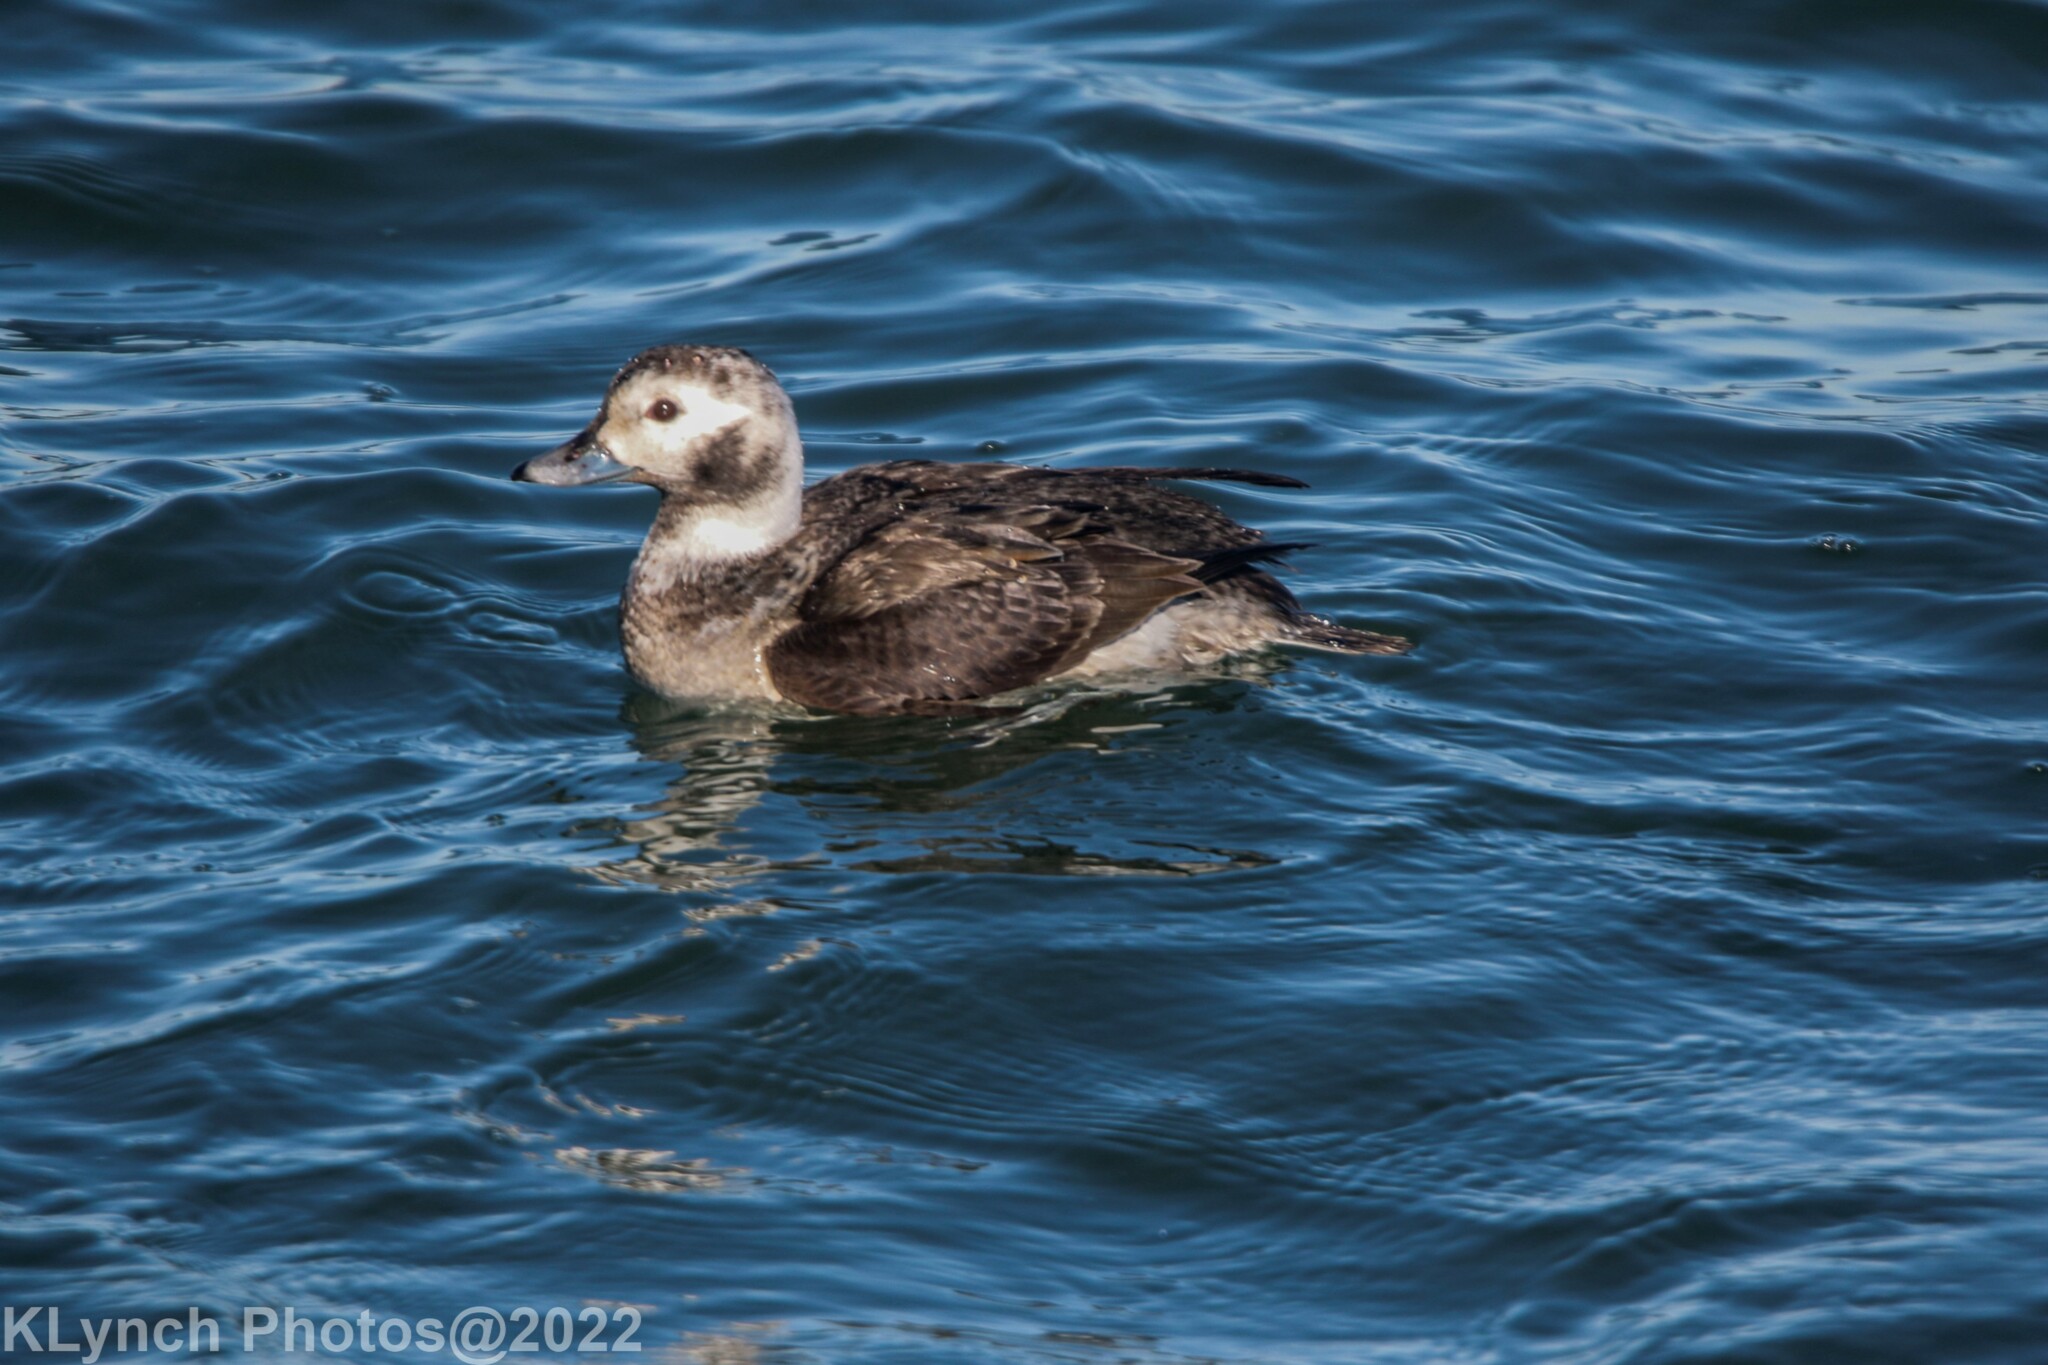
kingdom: Animalia
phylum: Chordata
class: Aves
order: Anseriformes
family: Anatidae
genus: Clangula
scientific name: Clangula hyemalis
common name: Long-tailed duck
